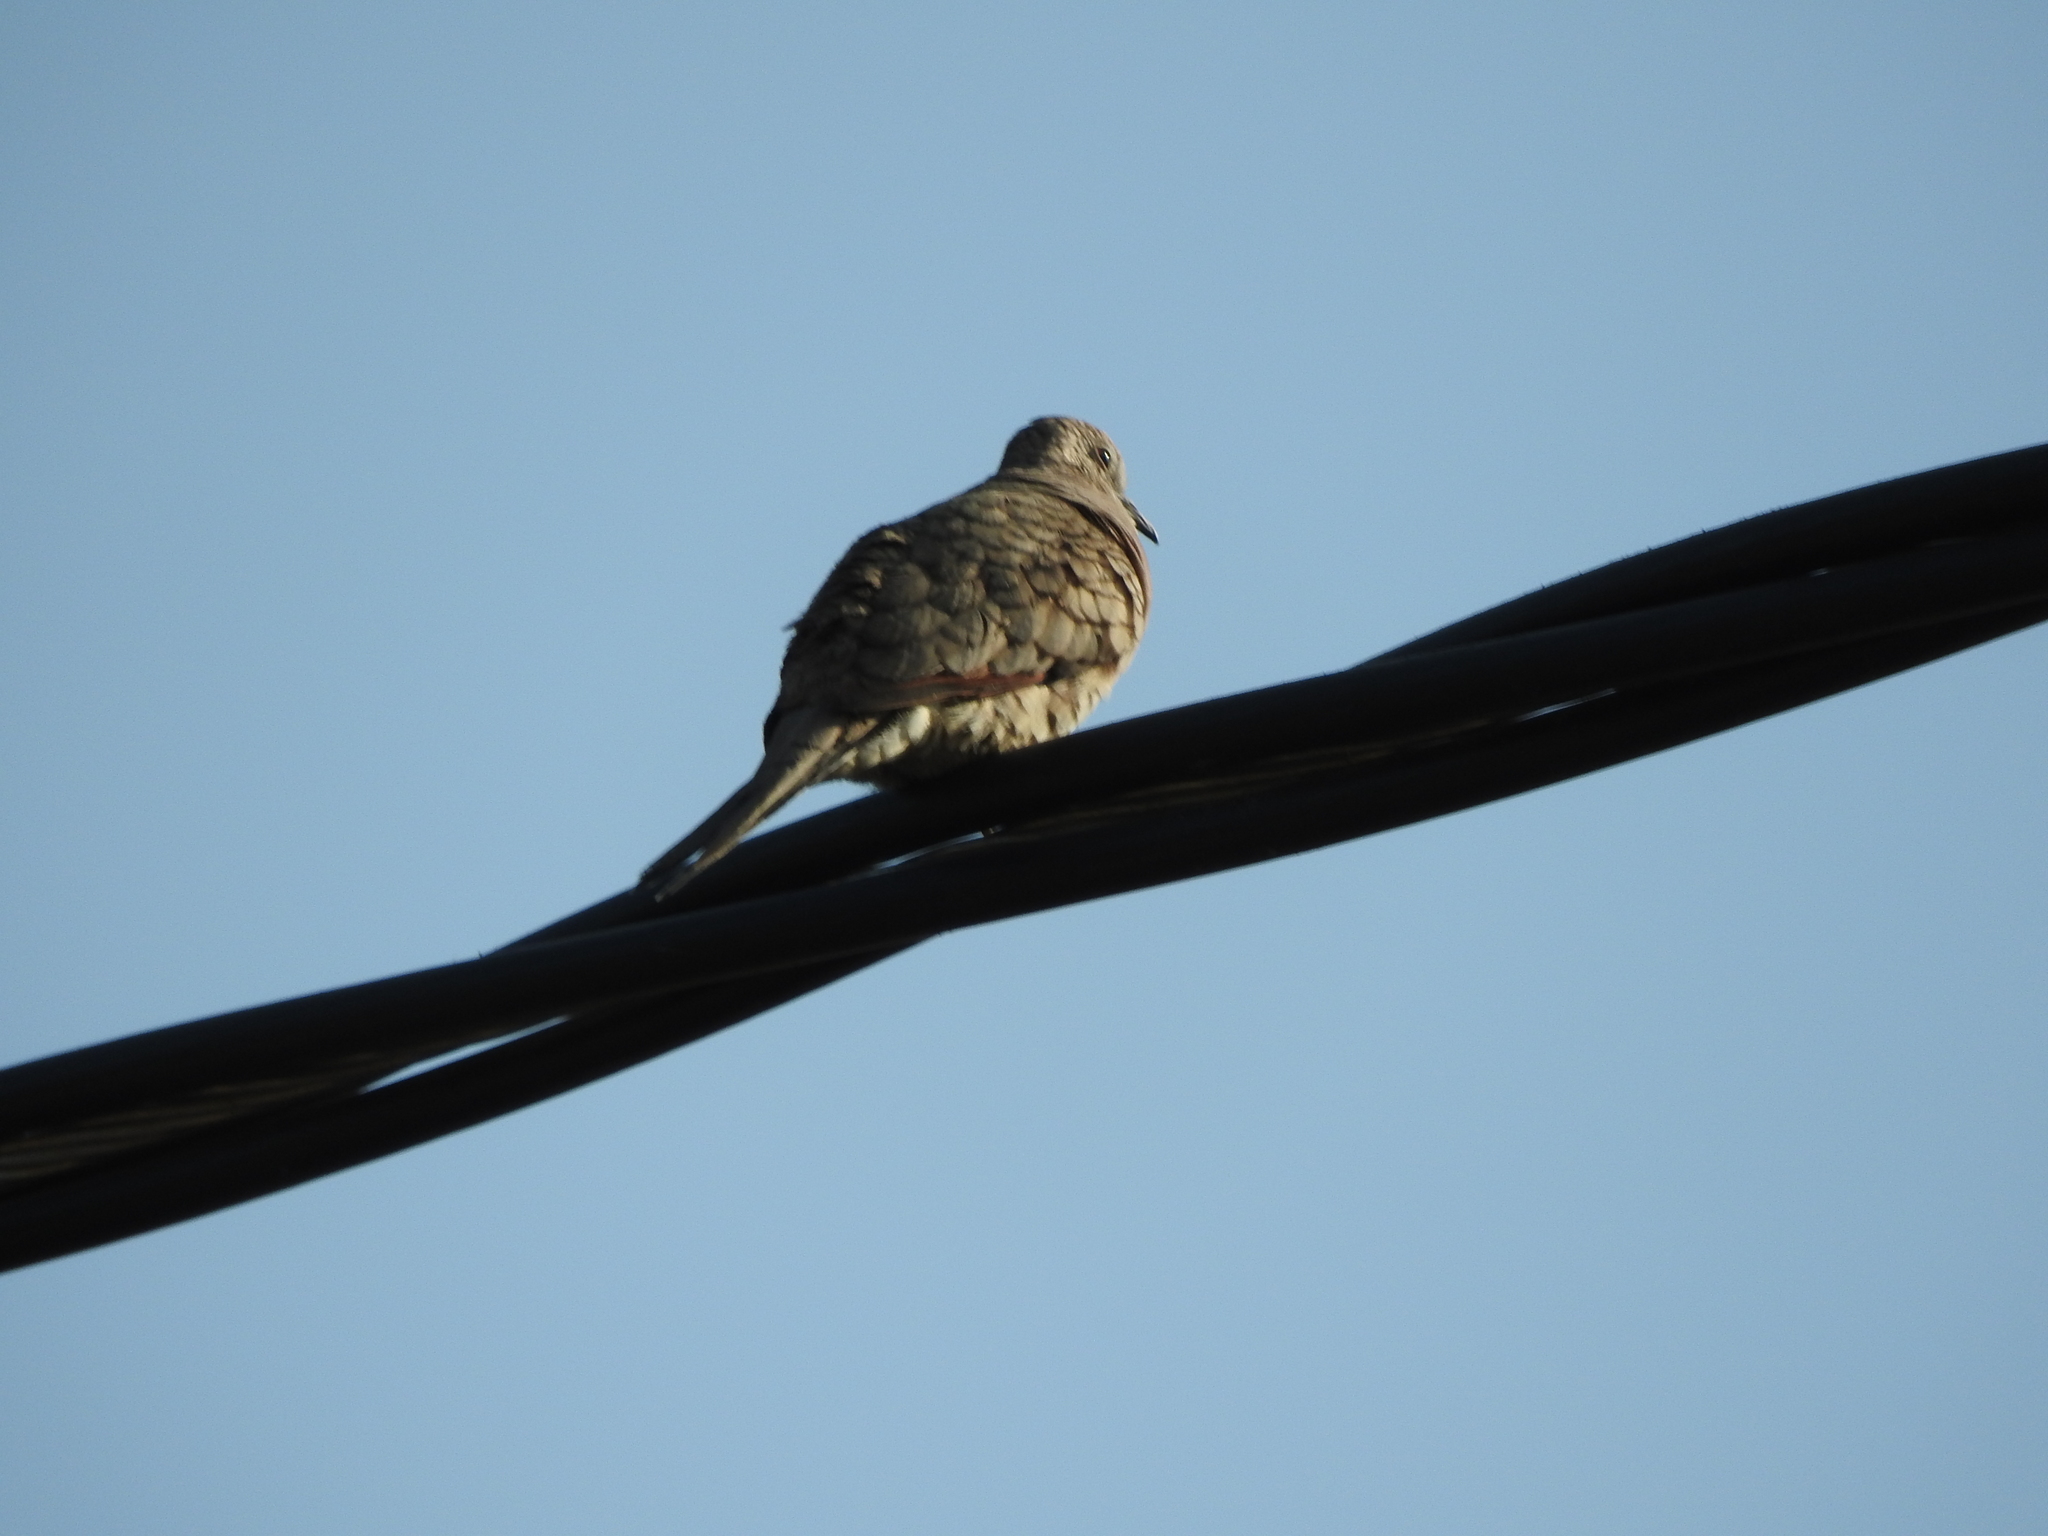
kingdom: Animalia
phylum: Chordata
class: Aves
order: Columbiformes
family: Columbidae
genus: Columbina
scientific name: Columbina inca
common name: Inca dove
